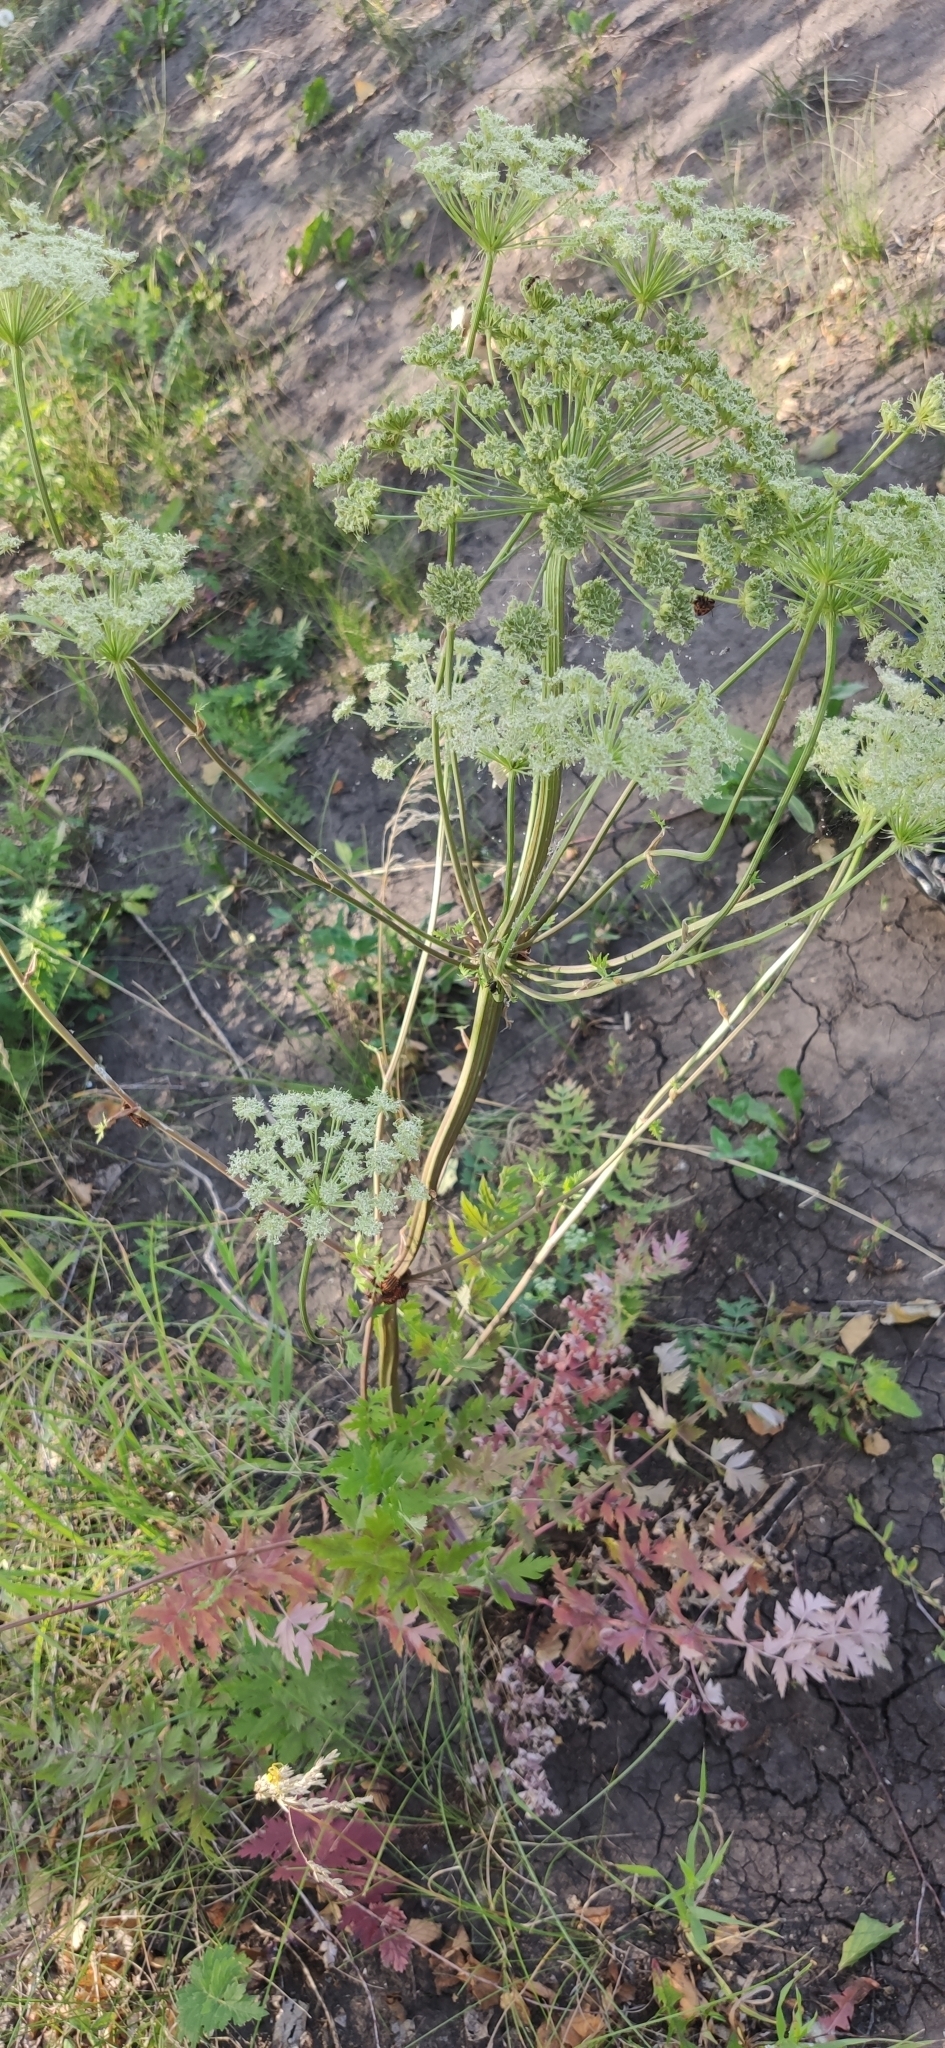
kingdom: Plantae
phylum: Tracheophyta
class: Magnoliopsida
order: Apiales
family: Apiaceae
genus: Seseli
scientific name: Seseli libanotis
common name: Mooncarrot
